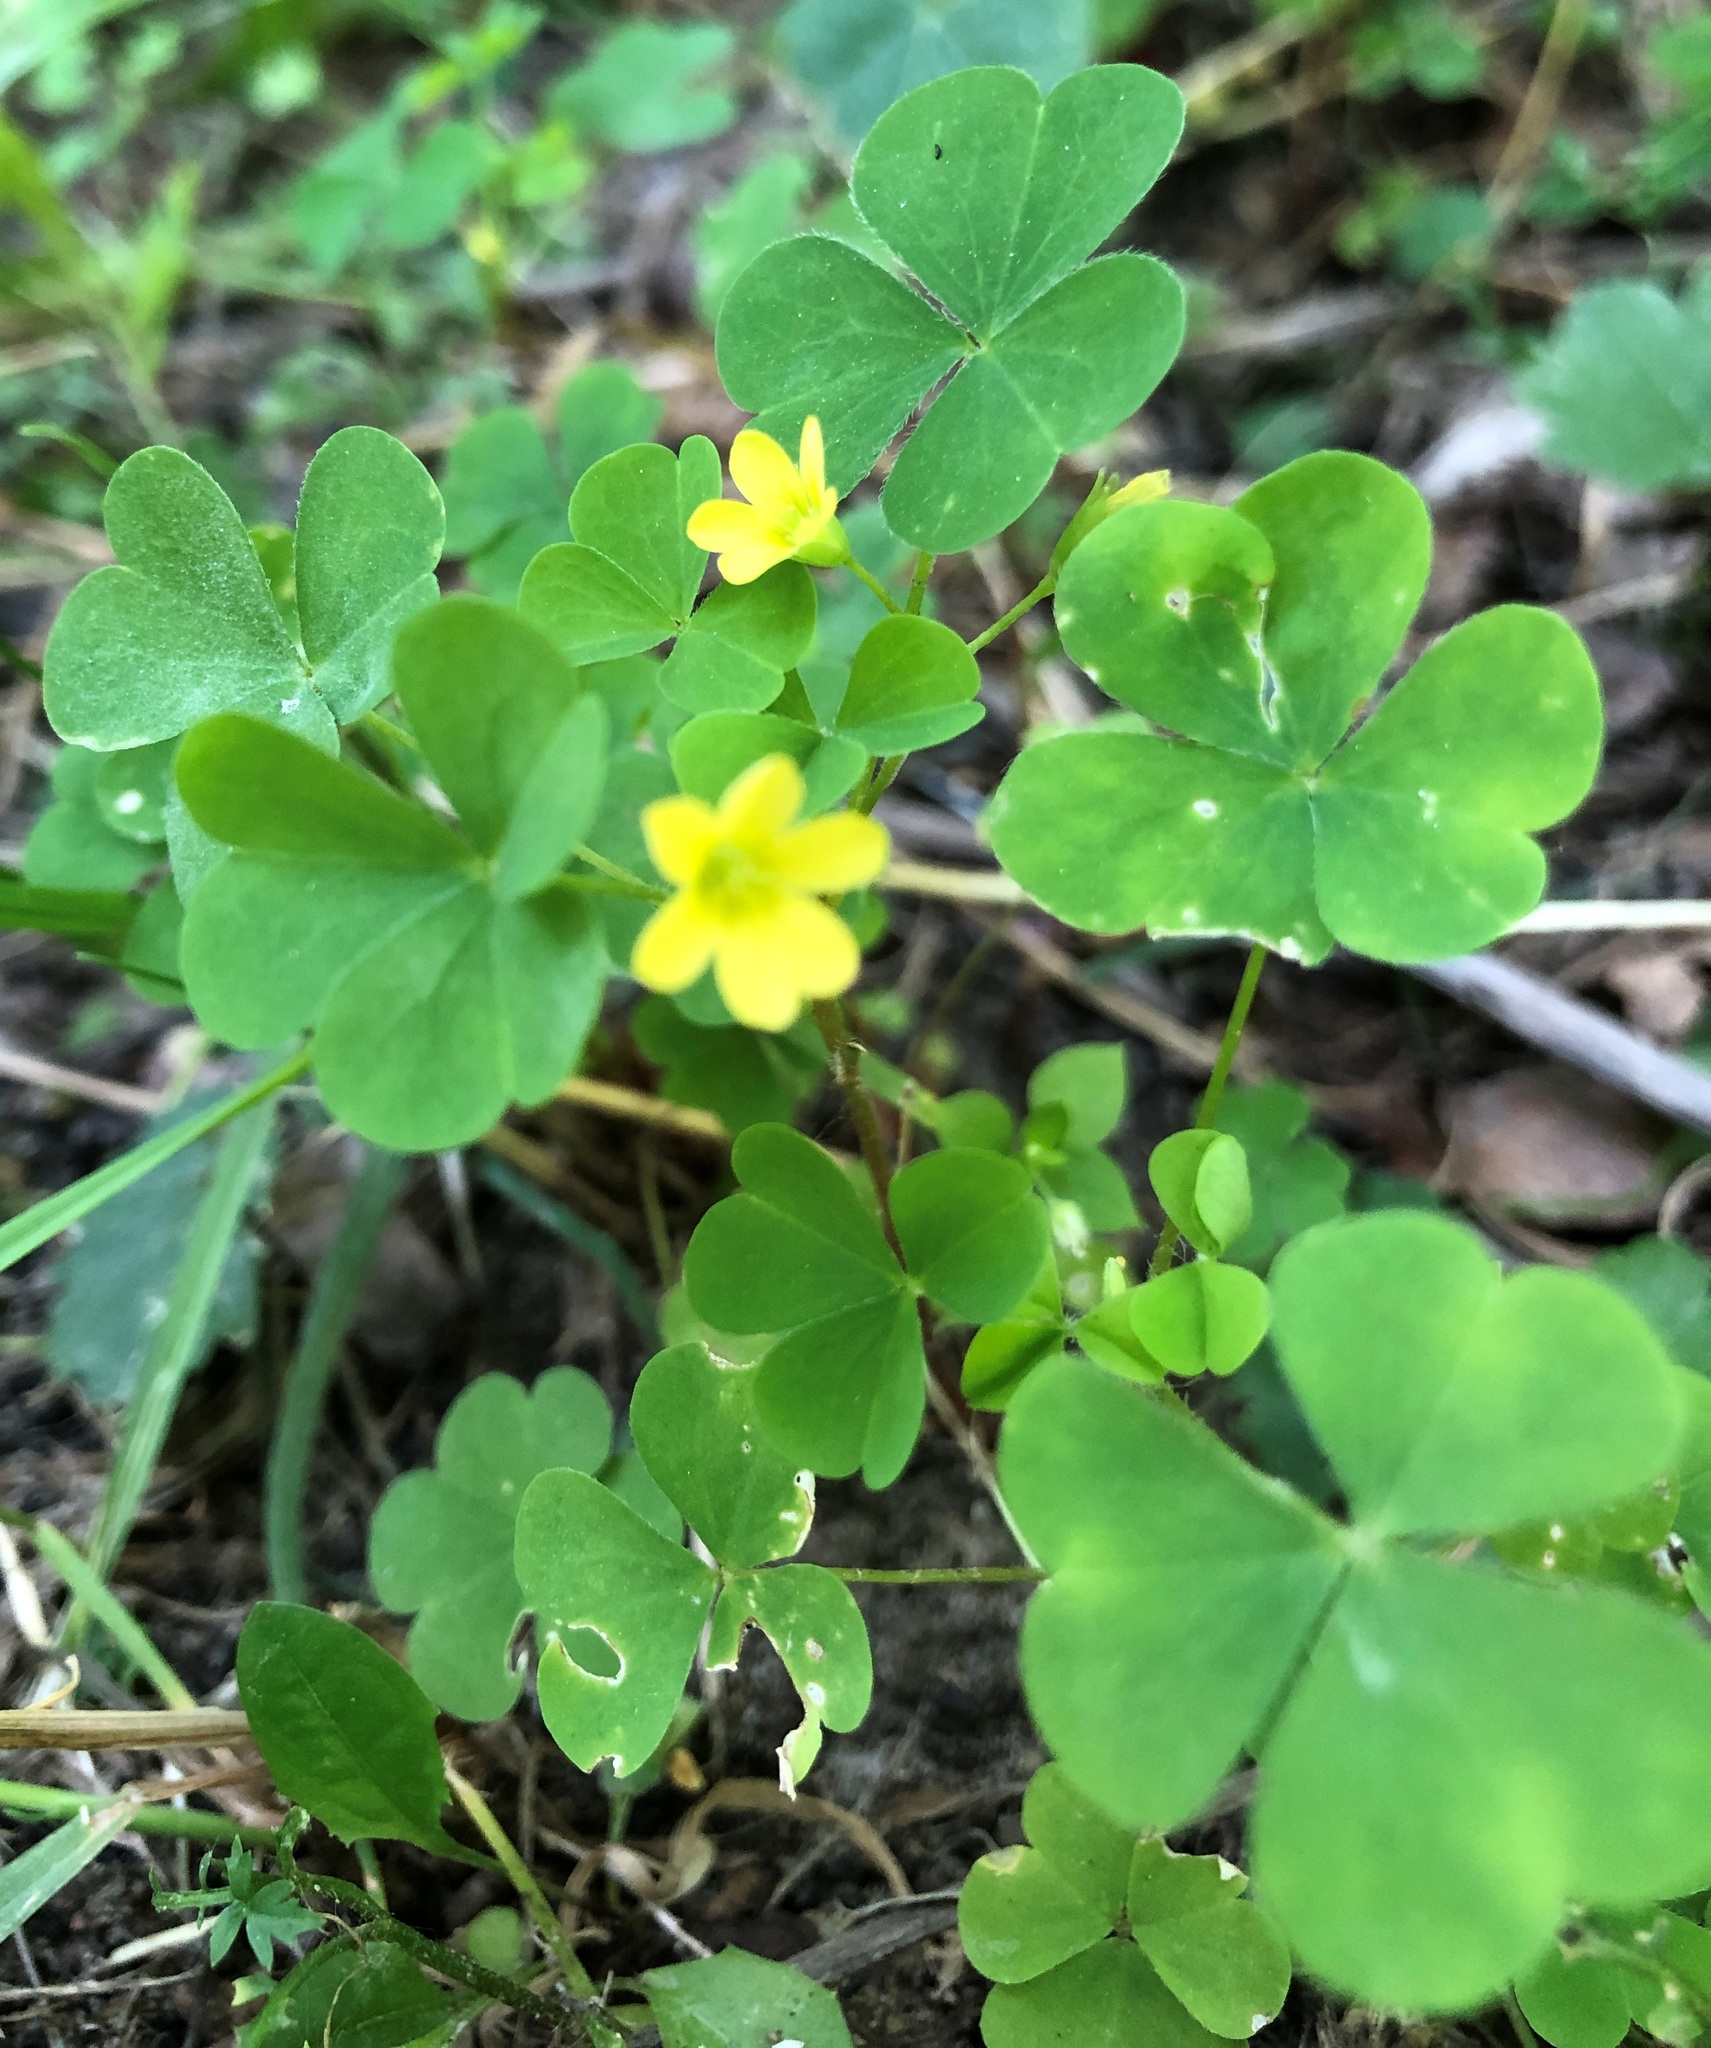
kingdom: Plantae
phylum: Tracheophyta
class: Magnoliopsida
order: Oxalidales
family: Oxalidaceae
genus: Oxalis
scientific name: Oxalis stricta
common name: Upright yellow-sorrel
